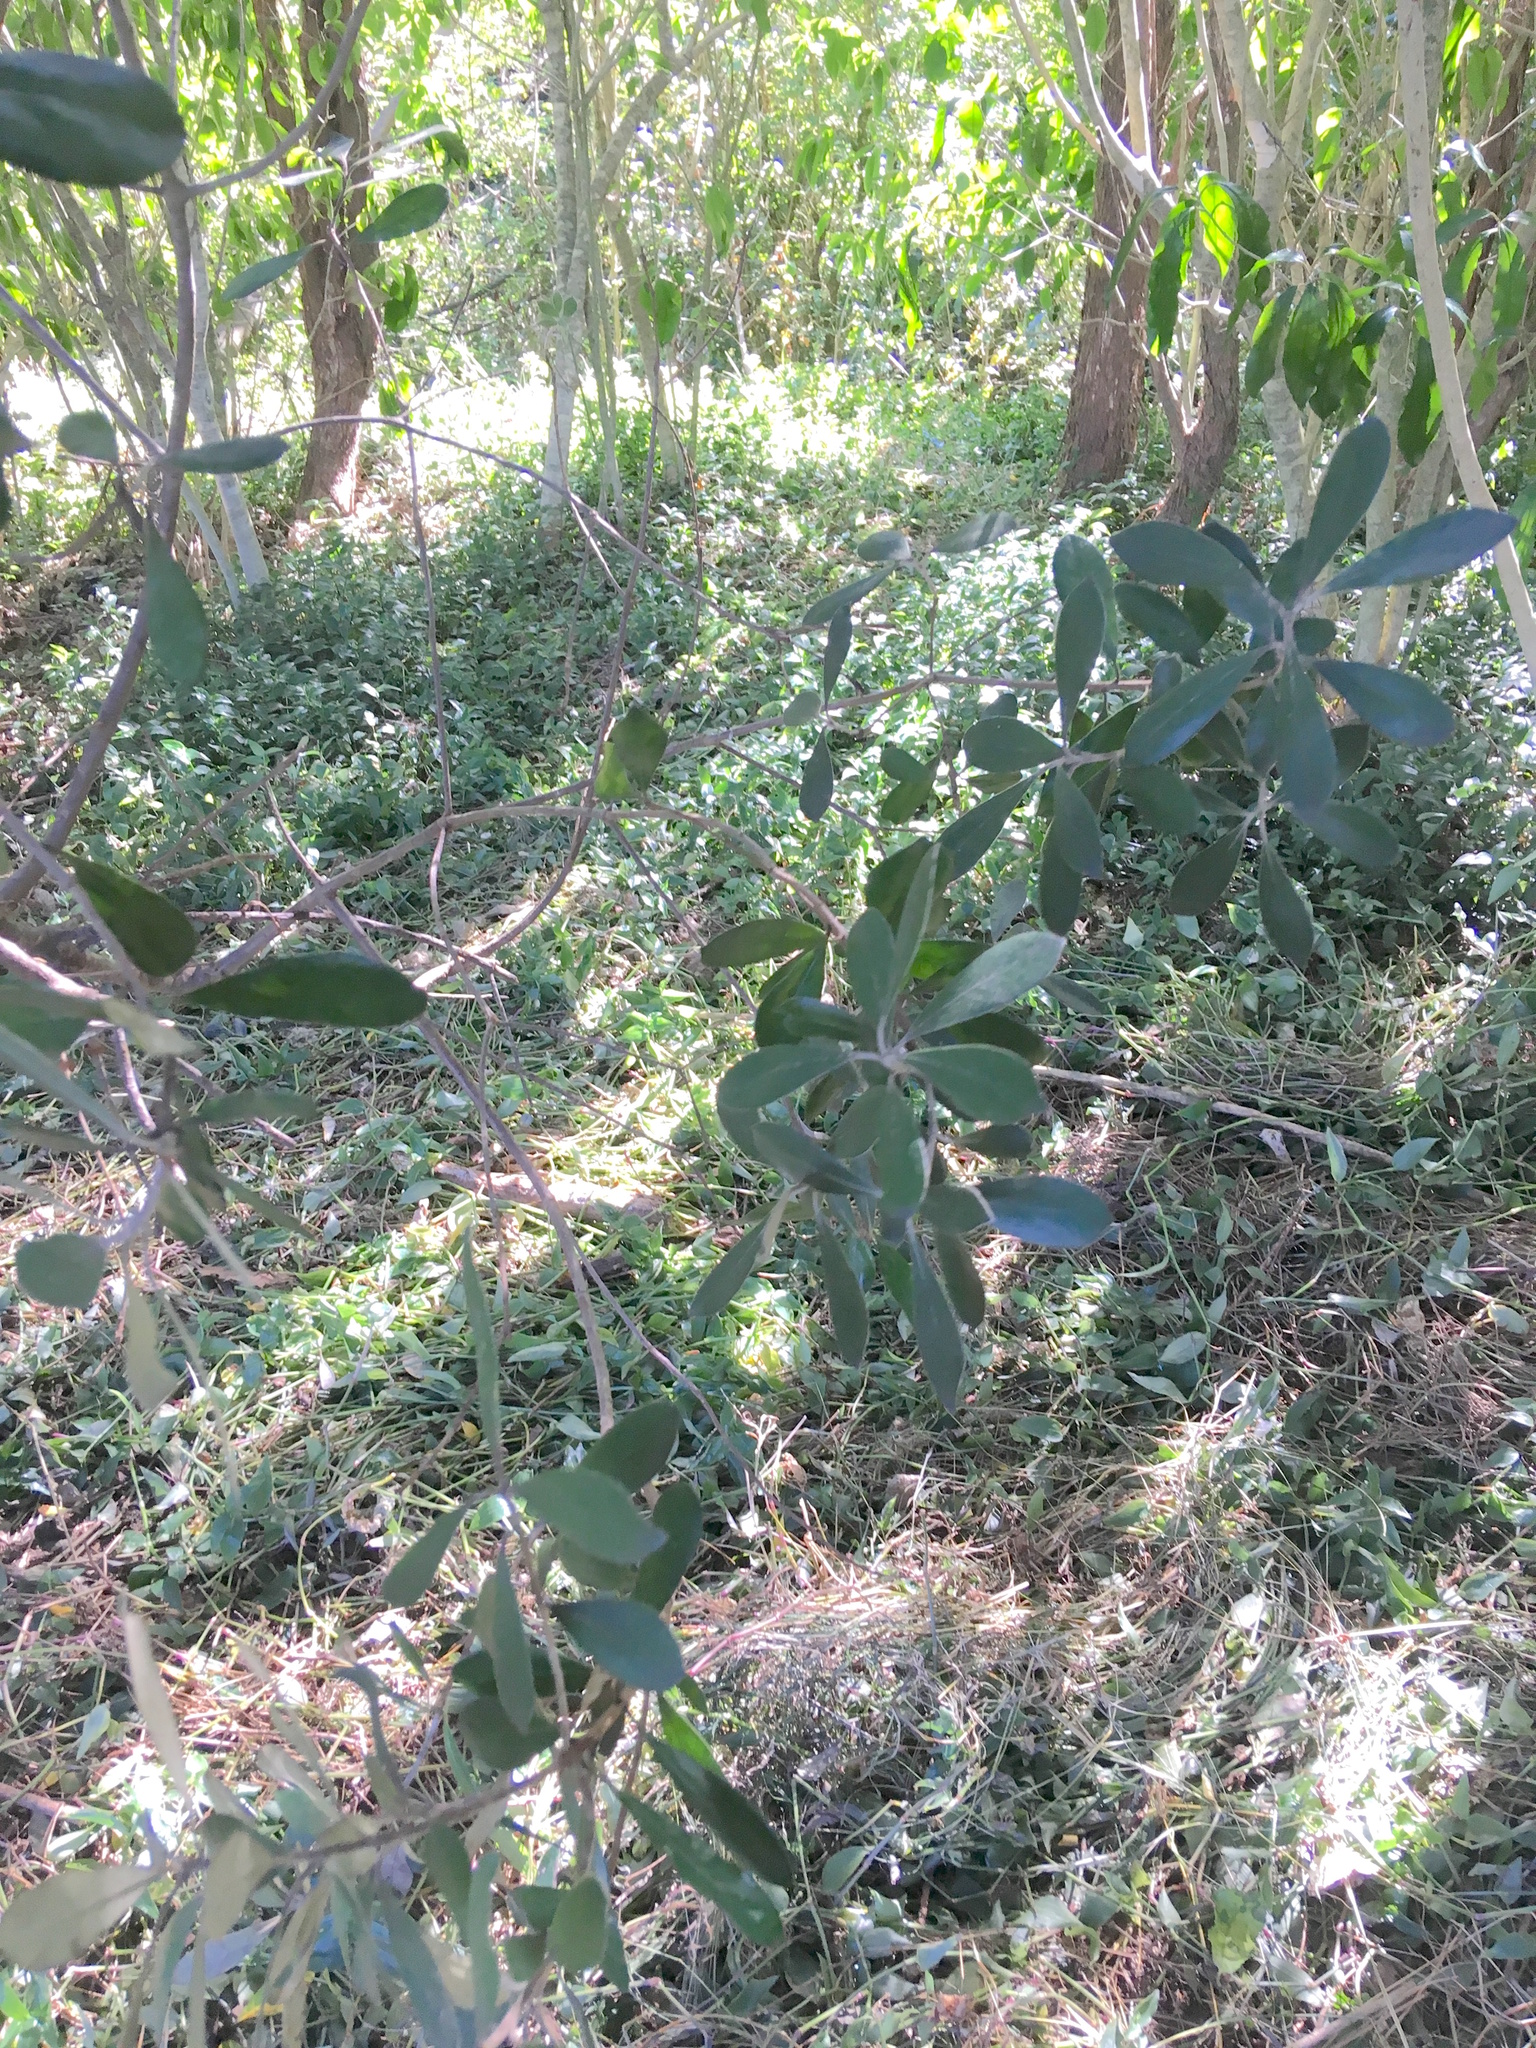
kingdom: Plantae
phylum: Tracheophyta
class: Liliopsida
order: Commelinales
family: Commelinaceae
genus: Tradescantia
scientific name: Tradescantia fluminensis
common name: Wandering-jew
